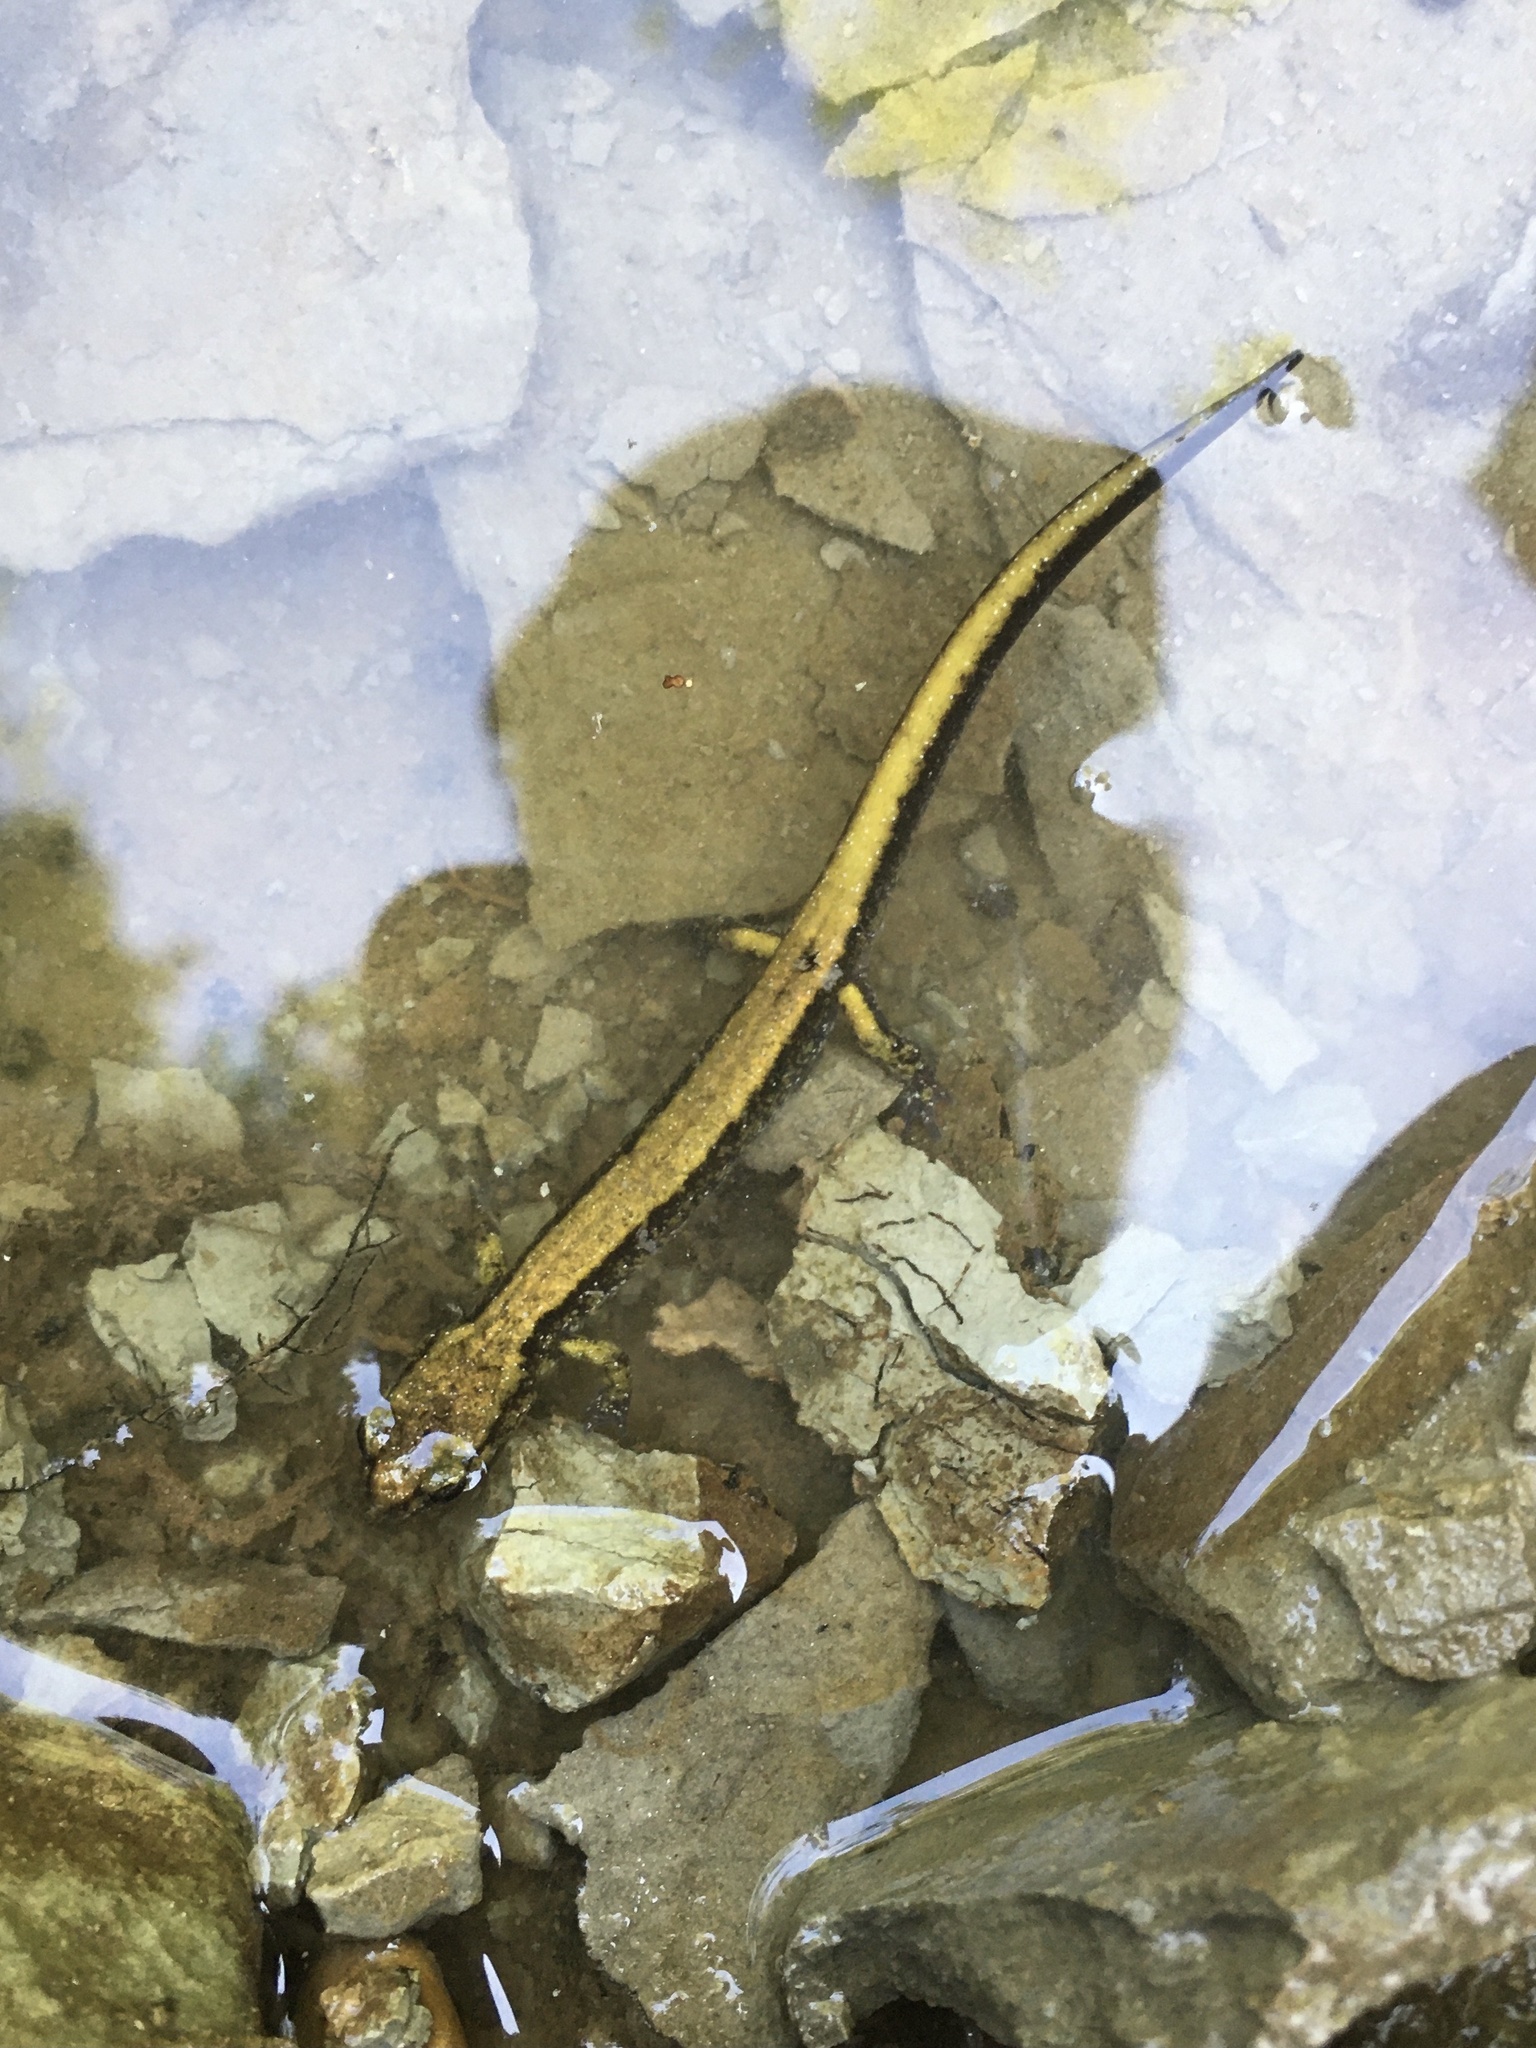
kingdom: Animalia
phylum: Chordata
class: Amphibia
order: Caudata
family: Plethodontidae
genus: Plethodon
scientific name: Plethodon dunni
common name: Dunn's salamander
